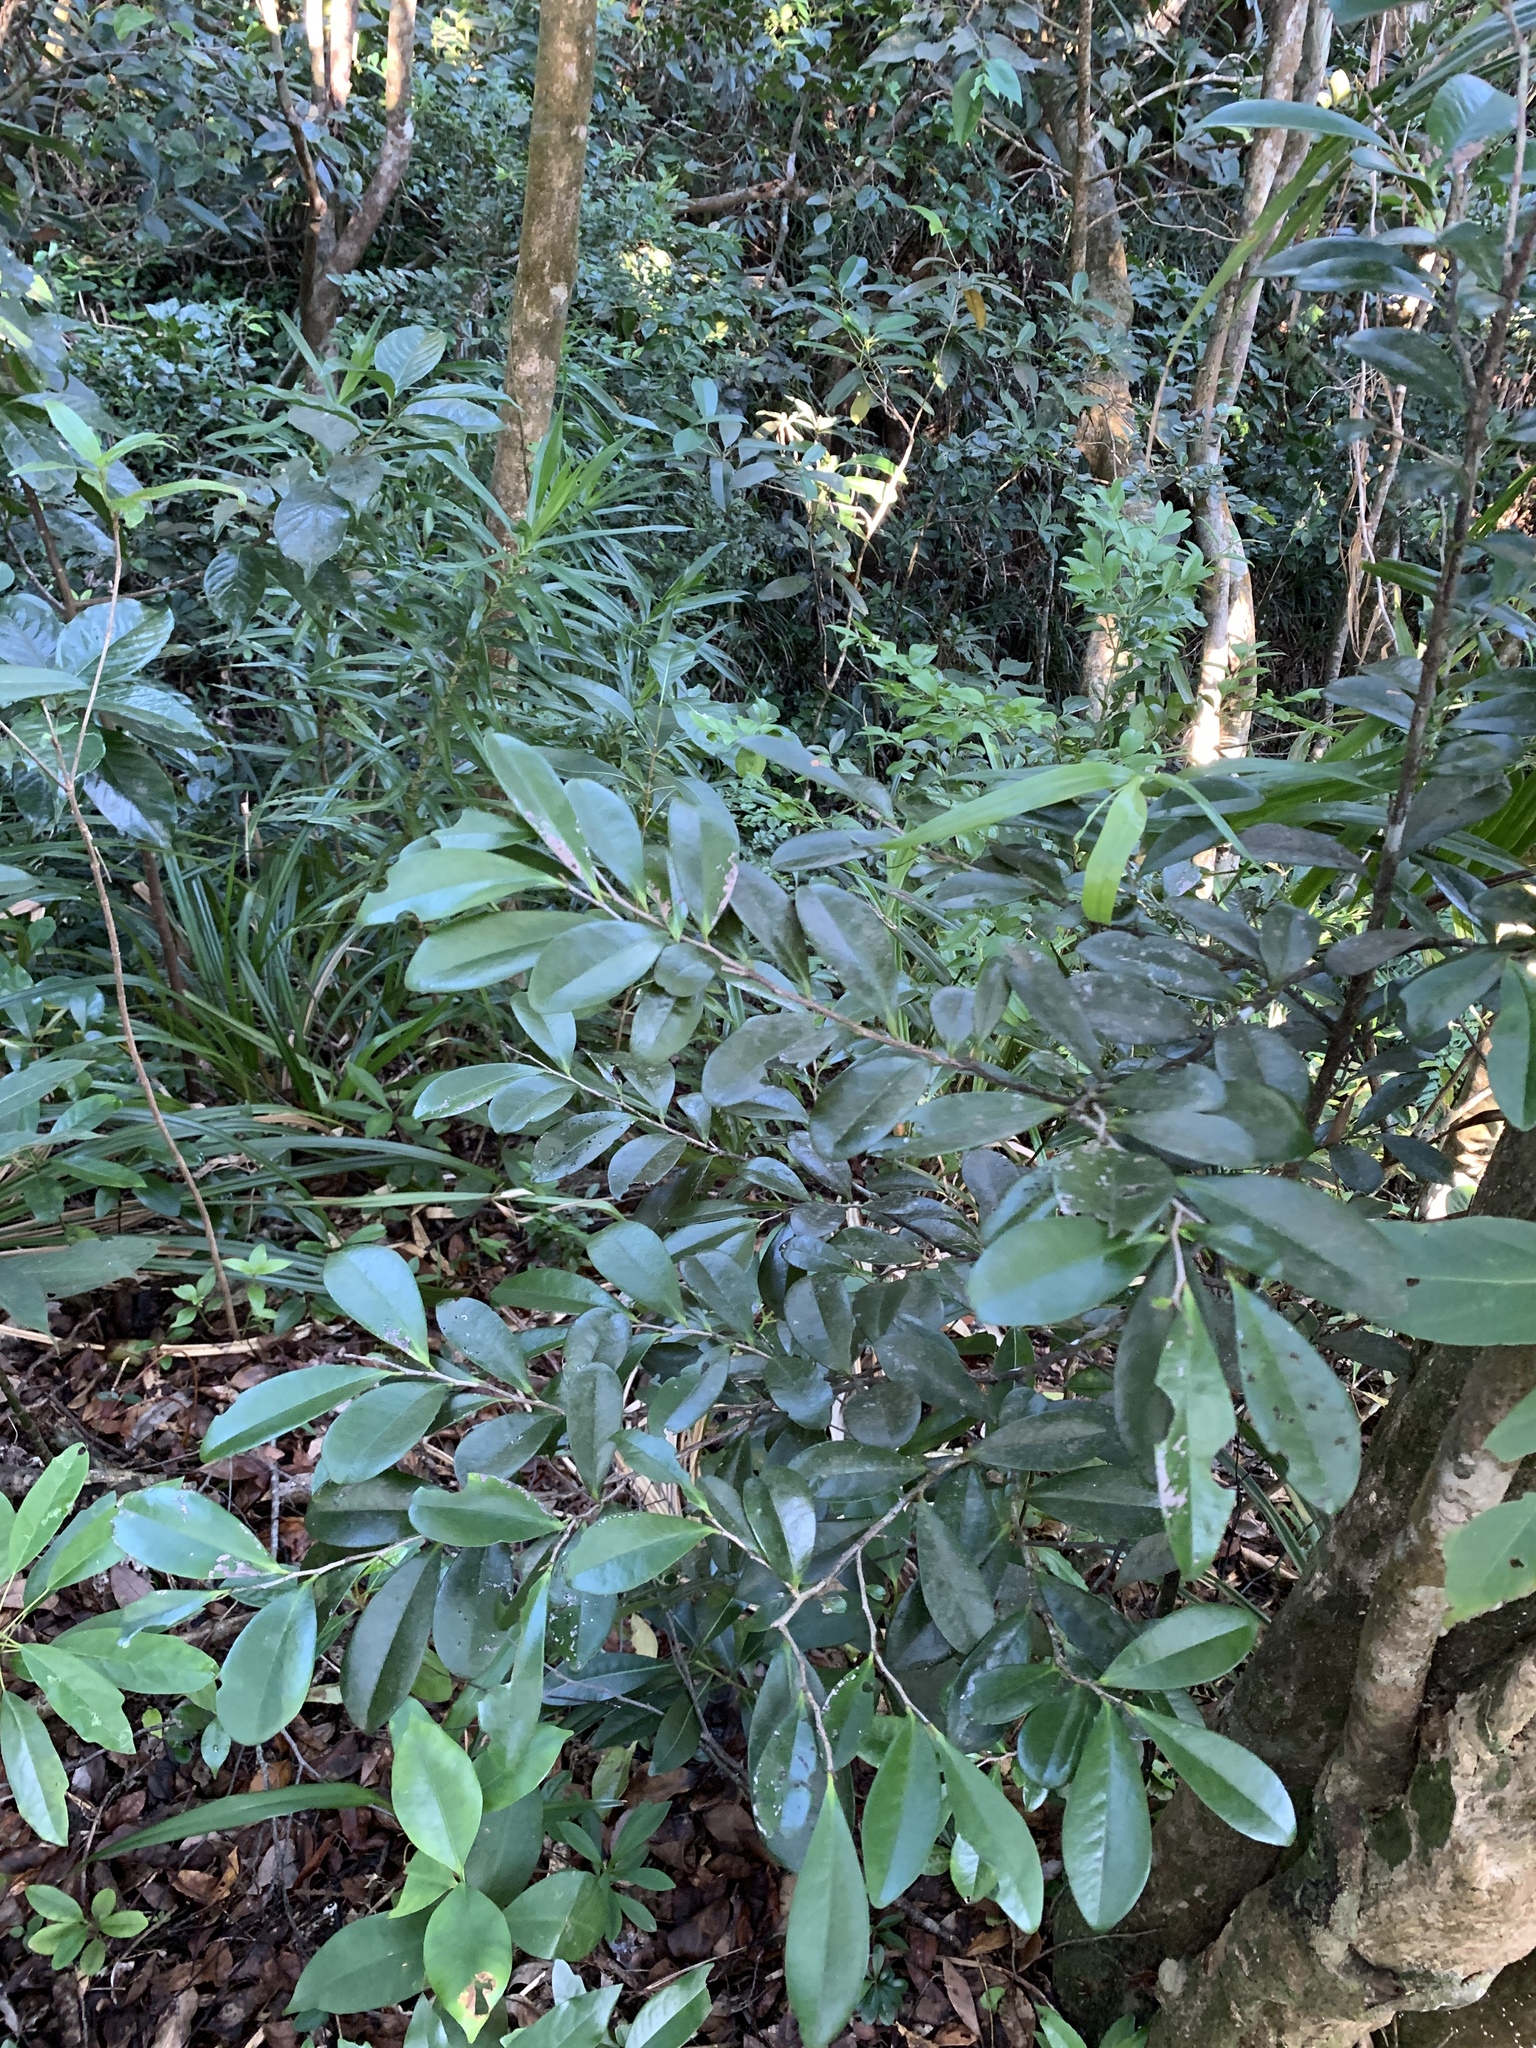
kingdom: Plantae
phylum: Tracheophyta
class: Magnoliopsida
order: Ericales
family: Ebenaceae
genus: Diospyros
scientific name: Diospyros ferrea
